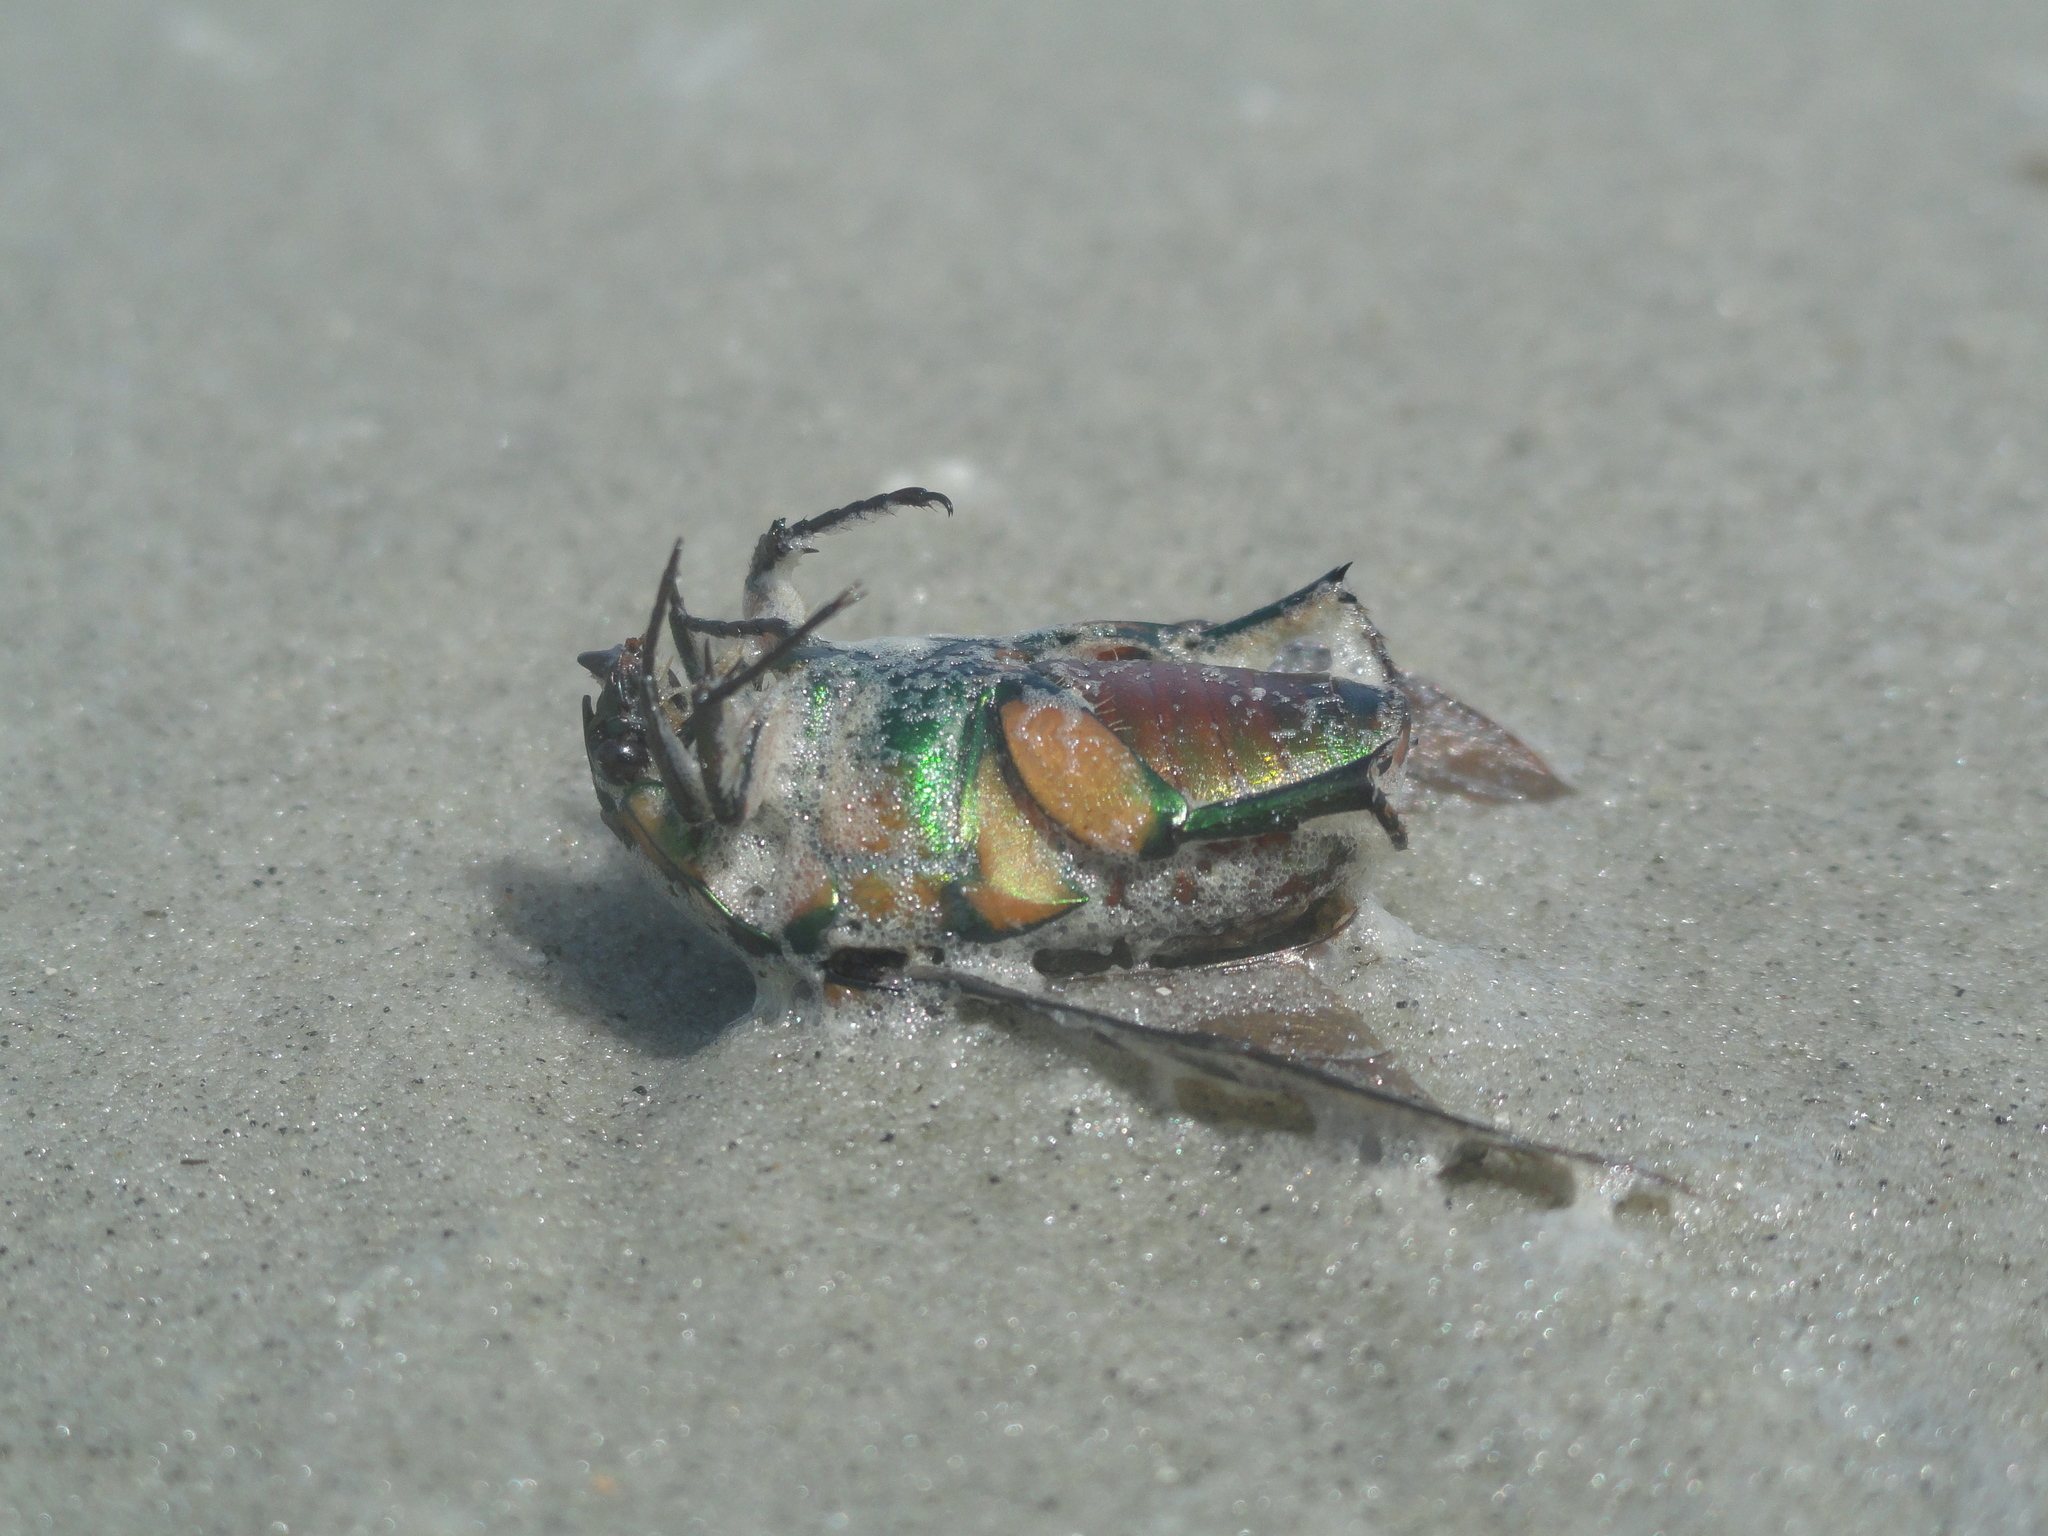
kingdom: Animalia
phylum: Arthropoda
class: Insecta
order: Coleoptera
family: Scarabaeidae
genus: Cotinis
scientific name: Cotinis nitida
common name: Common green june beetle
